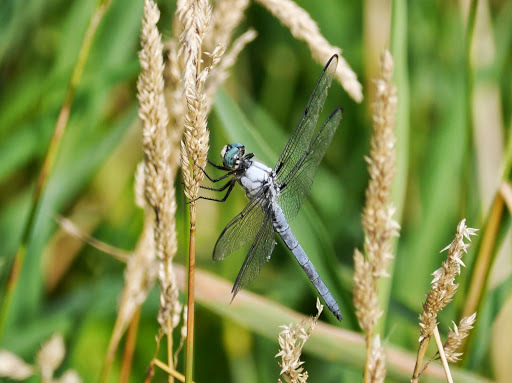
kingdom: Animalia
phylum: Arthropoda
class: Insecta
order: Odonata
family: Libellulidae
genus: Libellula
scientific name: Libellula vibrans
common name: Great blue skimmer
